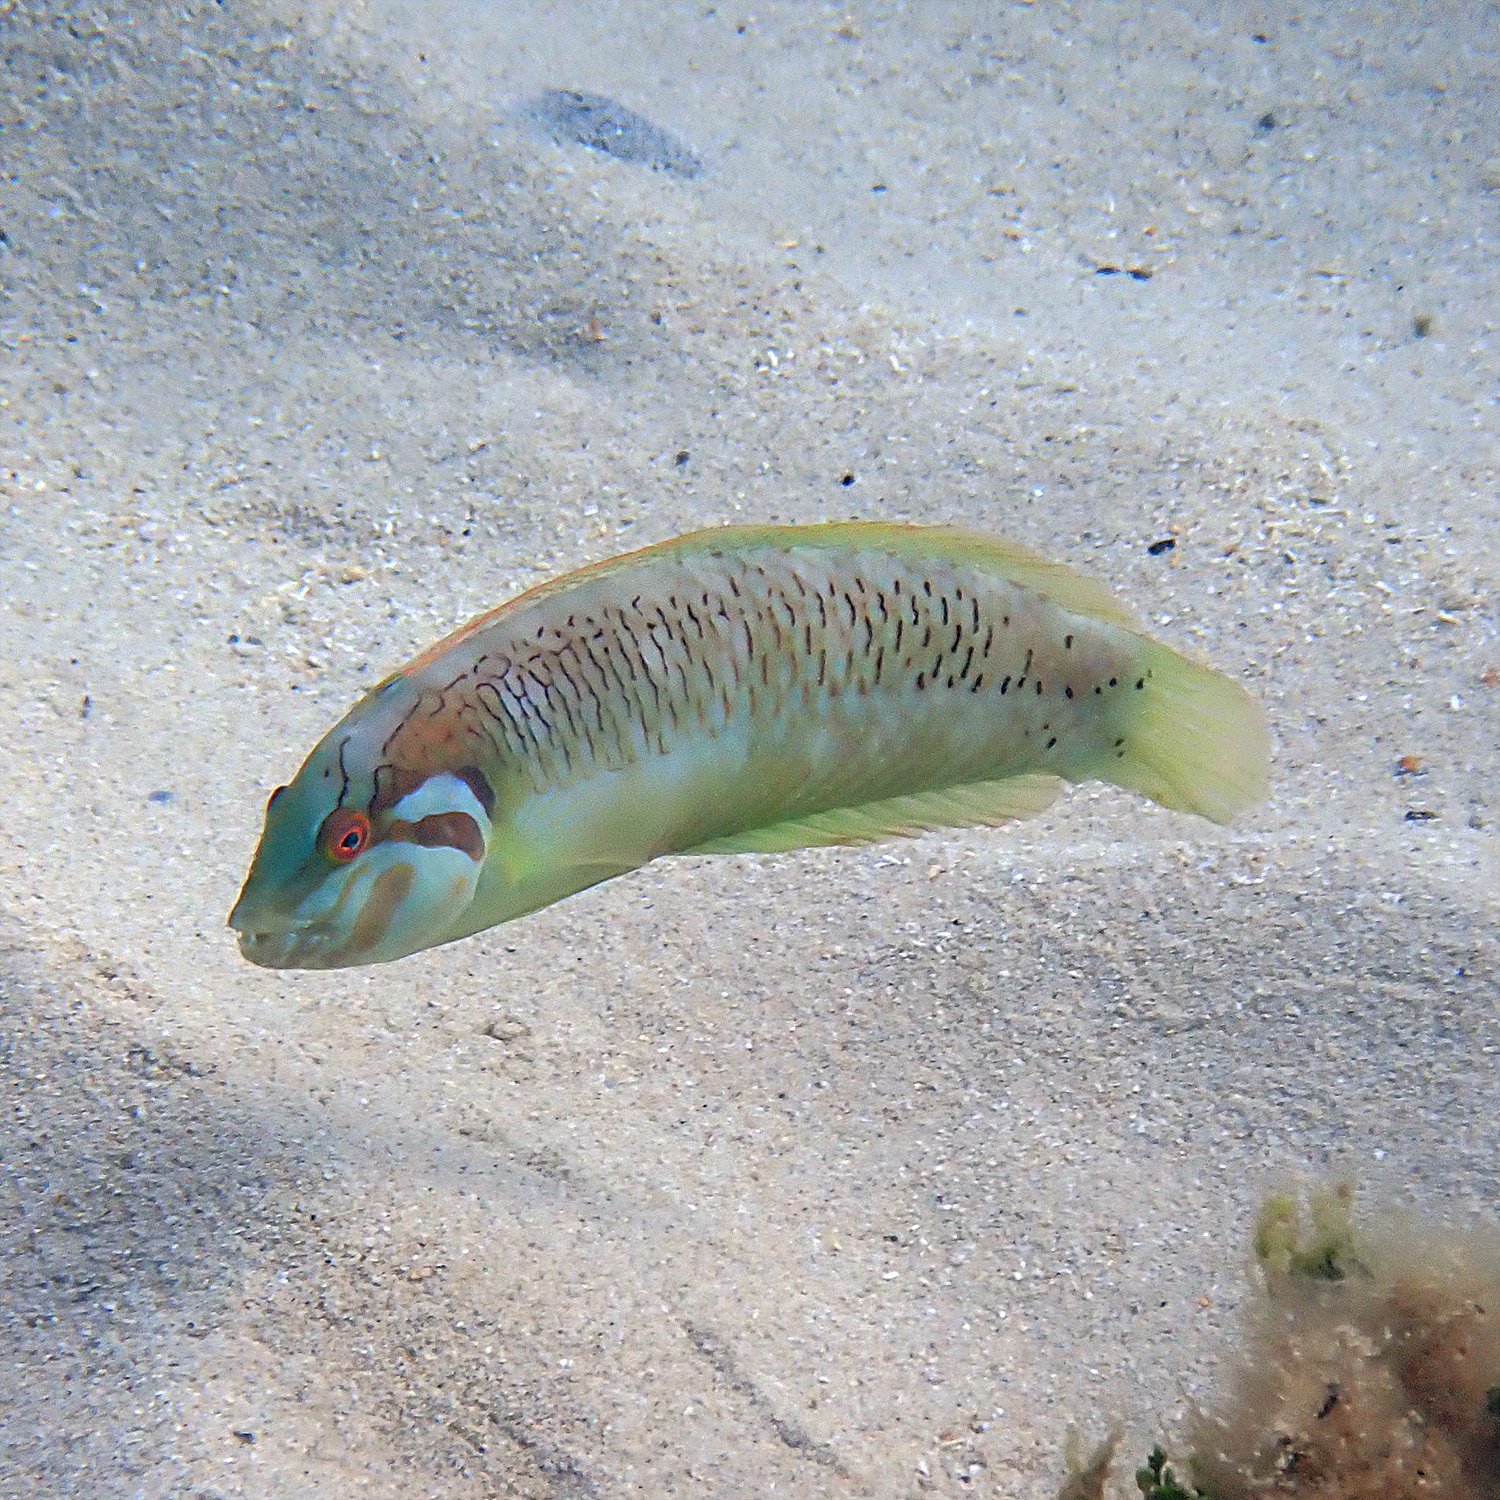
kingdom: Animalia
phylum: Chordata
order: Perciformes
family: Labridae
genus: Novaculoides
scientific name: Novaculoides macrolepidotus
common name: Seagrass wrasse
